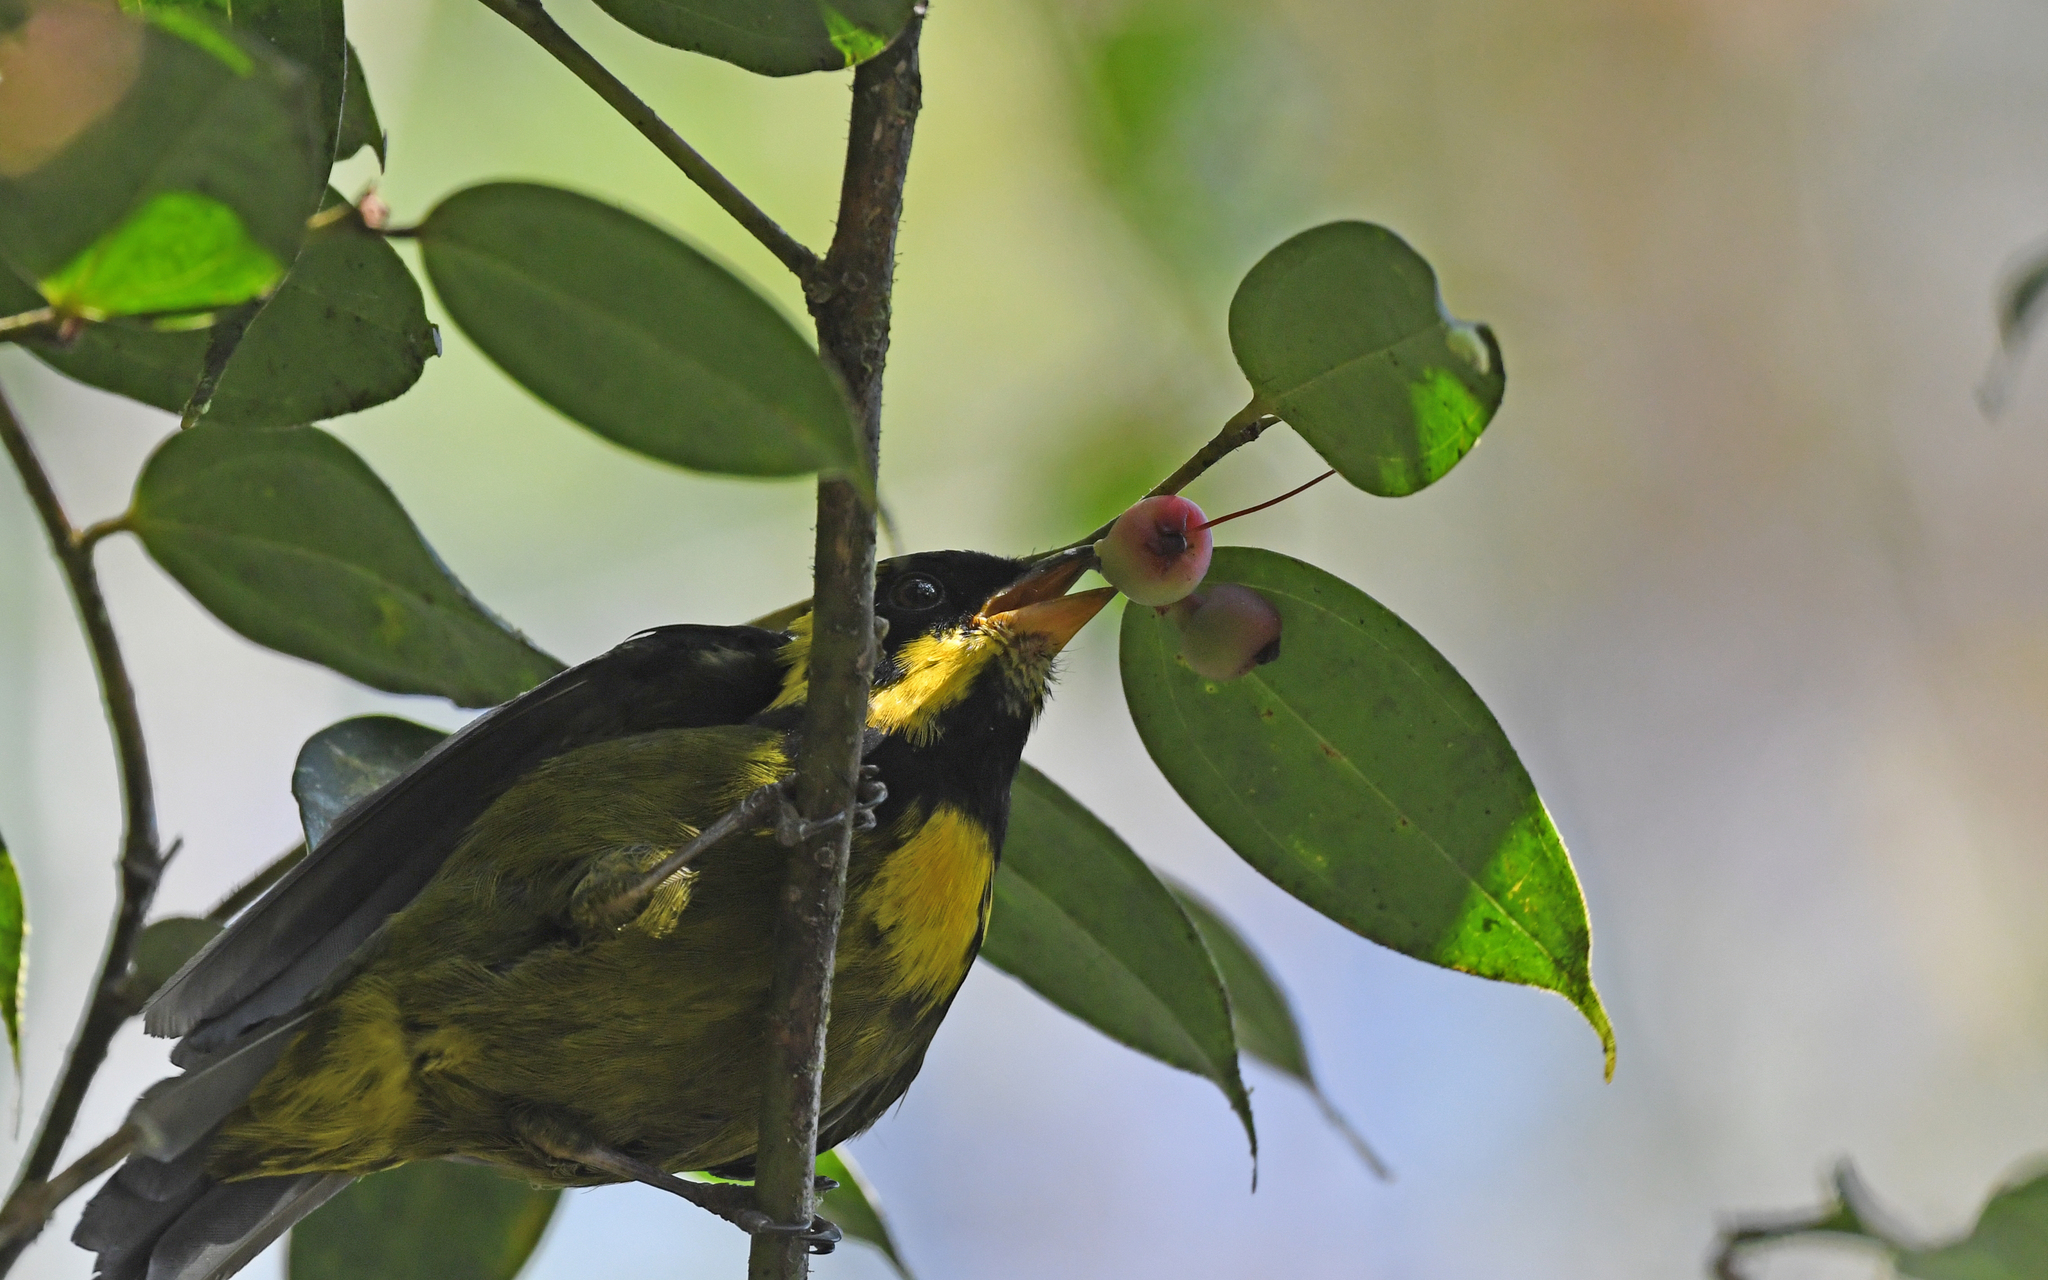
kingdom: Animalia
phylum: Chordata
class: Aves
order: Passeriformes
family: Thraupidae
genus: Bangsia
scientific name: Bangsia aureocincta
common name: Gold-ringed tanager
